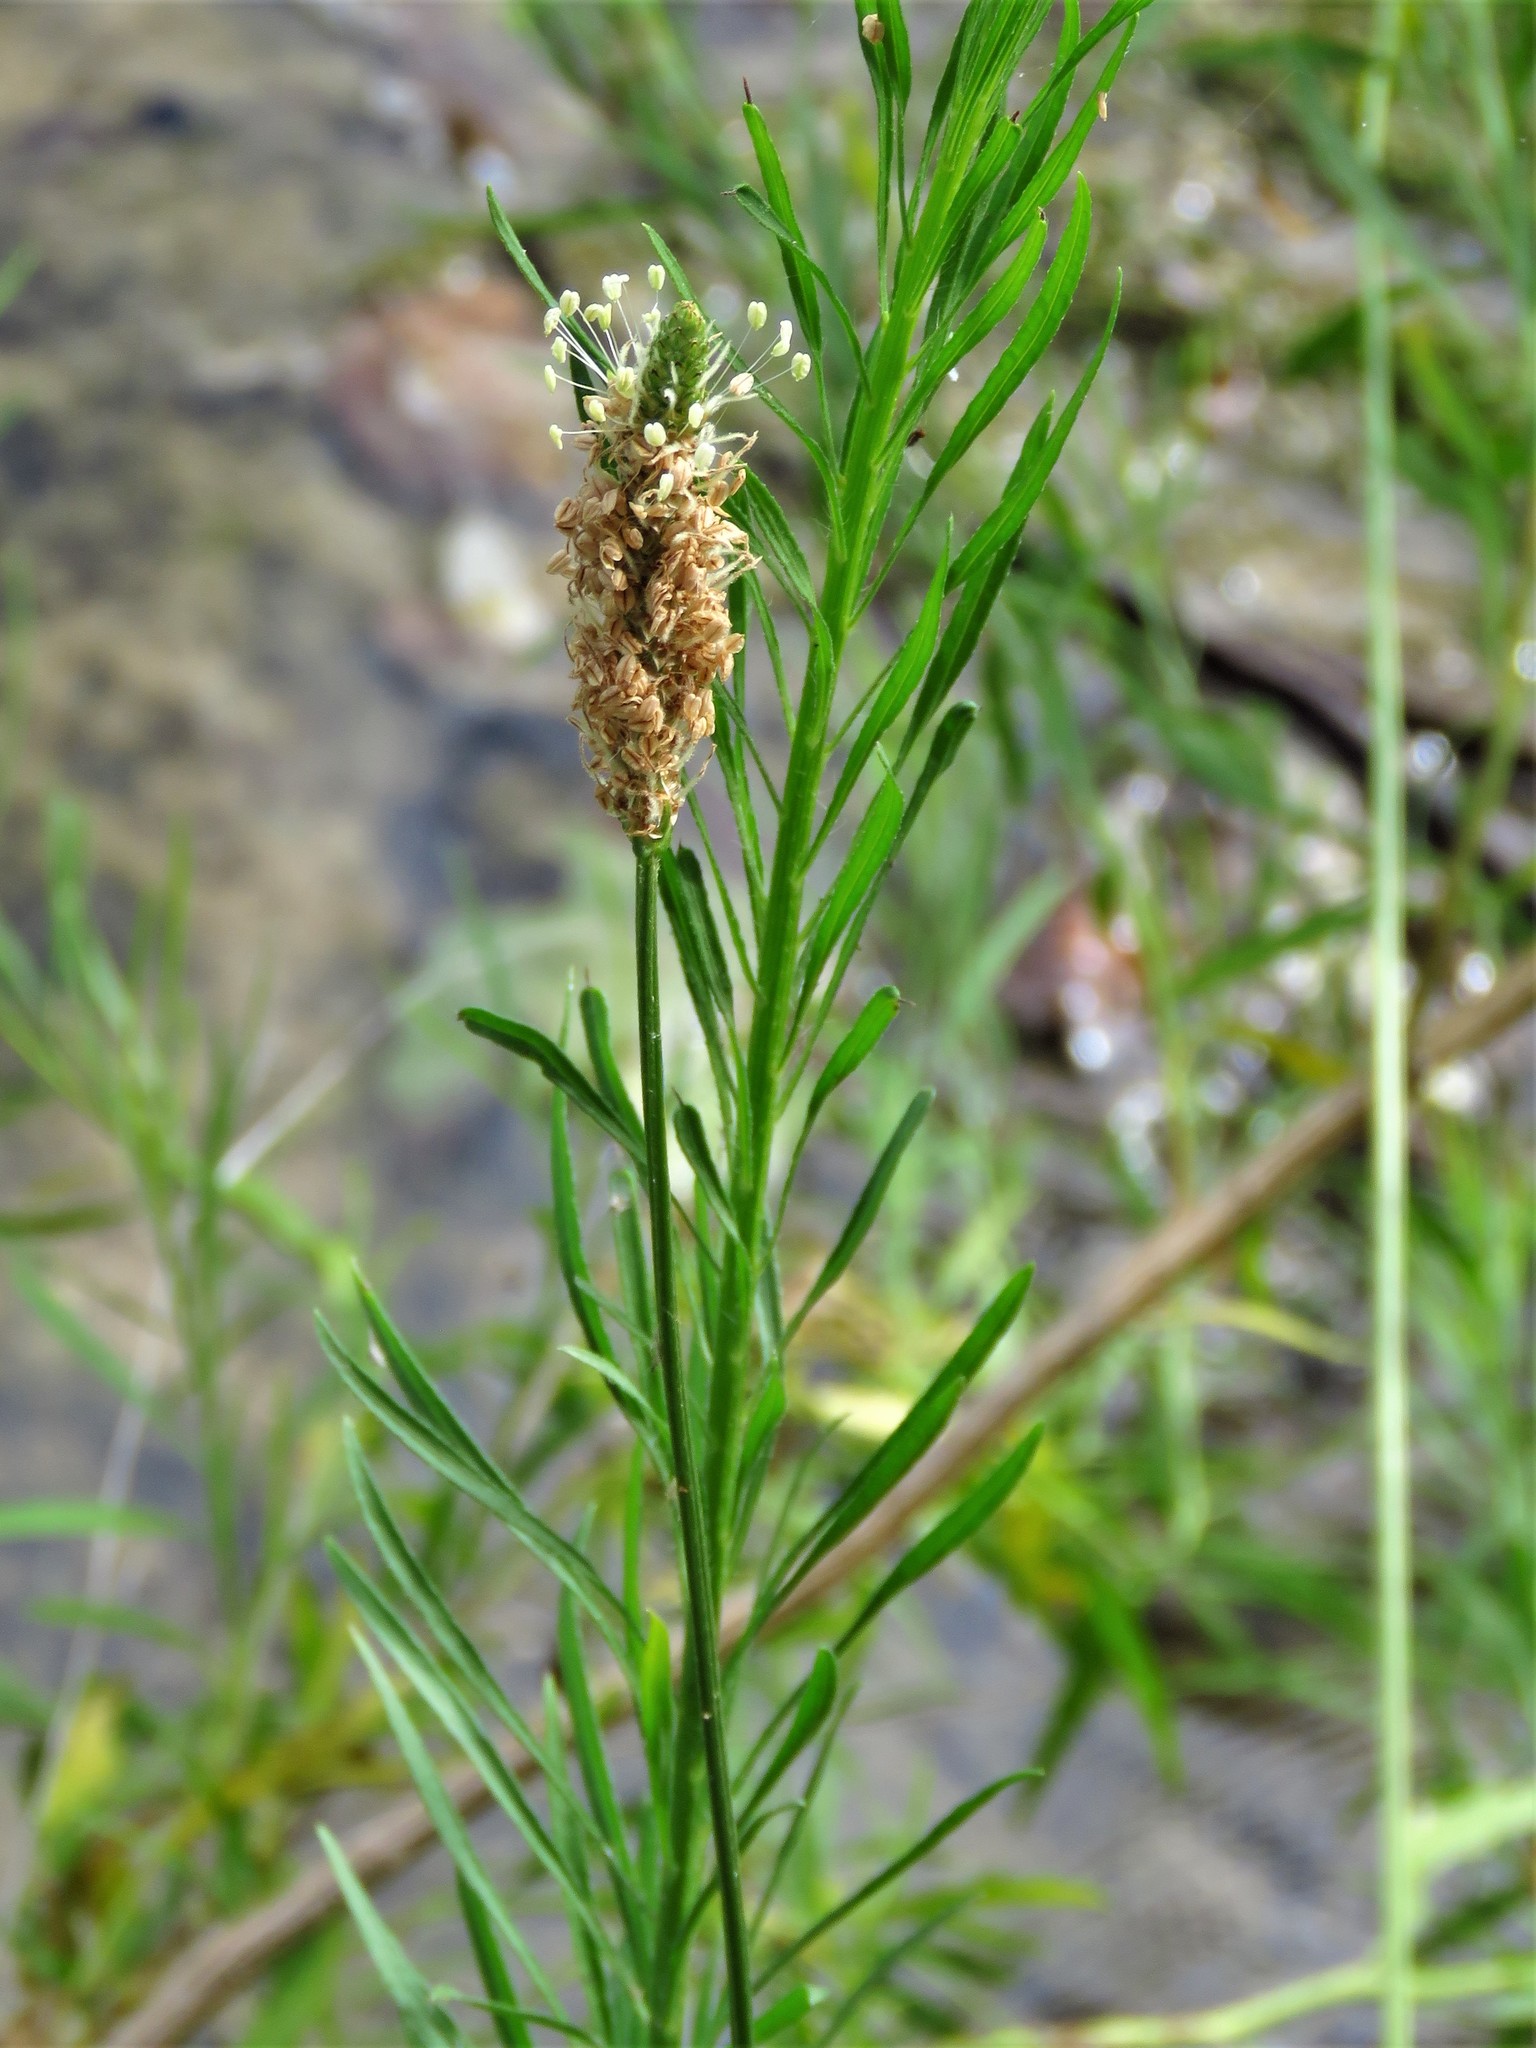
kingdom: Plantae
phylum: Tracheophyta
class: Magnoliopsida
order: Lamiales
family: Plantaginaceae
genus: Plantago
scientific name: Plantago lanceolata
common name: Ribwort plantain
